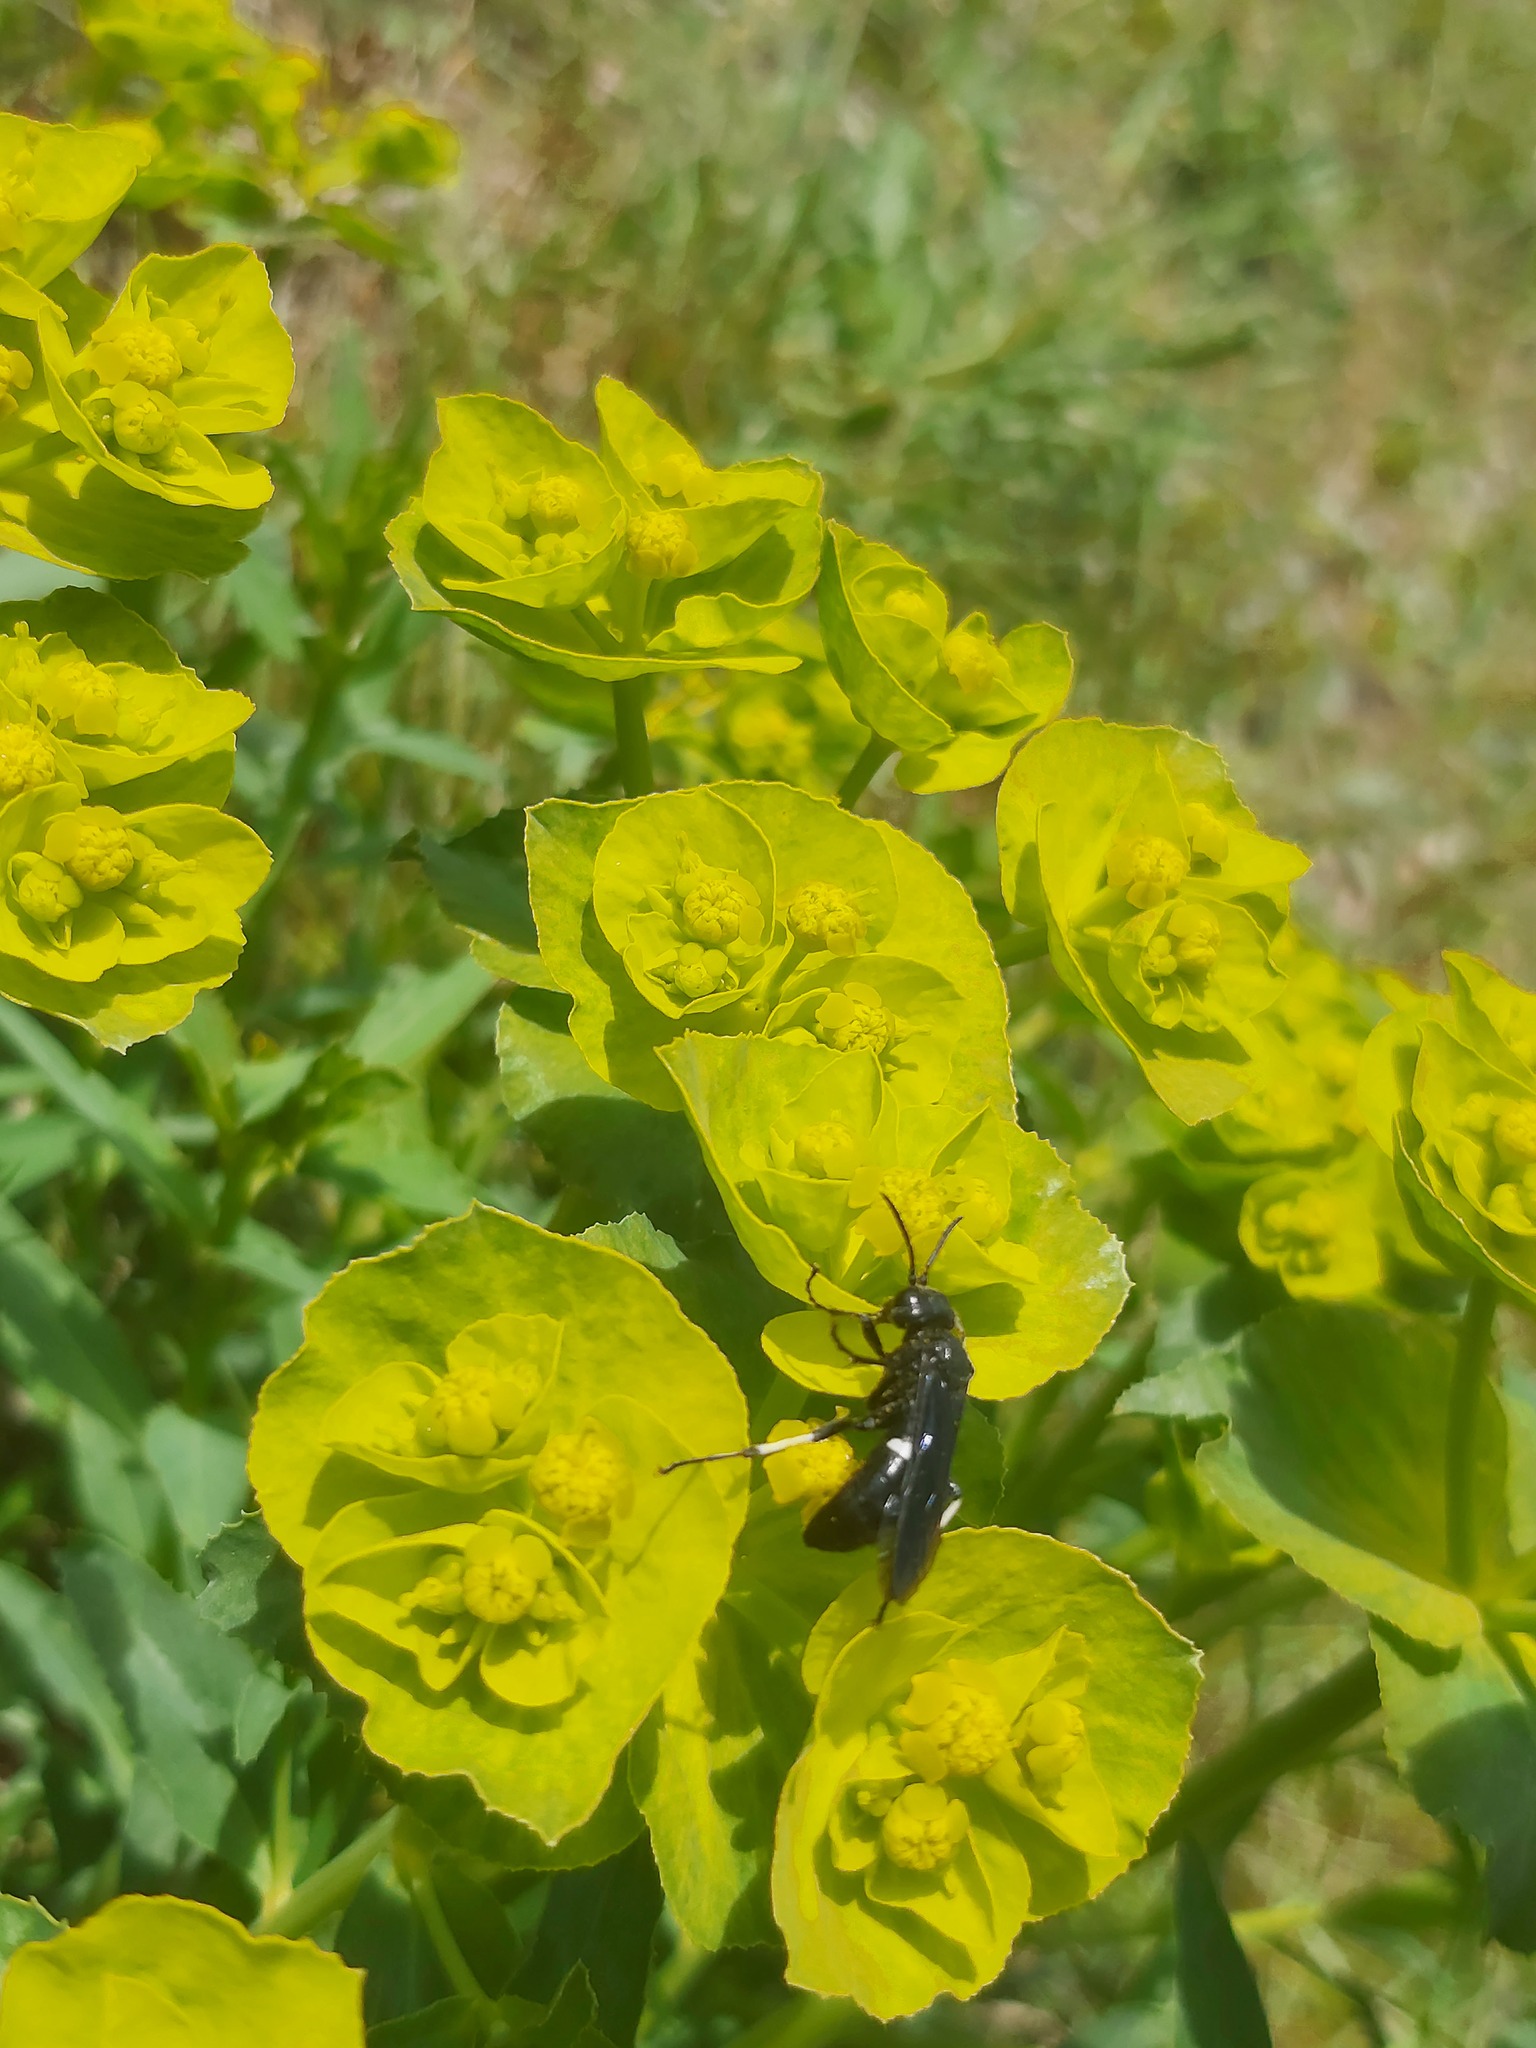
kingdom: Animalia
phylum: Arthropoda
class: Insecta
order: Hymenoptera
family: Tenthredinidae
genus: Tenthredo
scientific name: Tenthredo bifasciata
